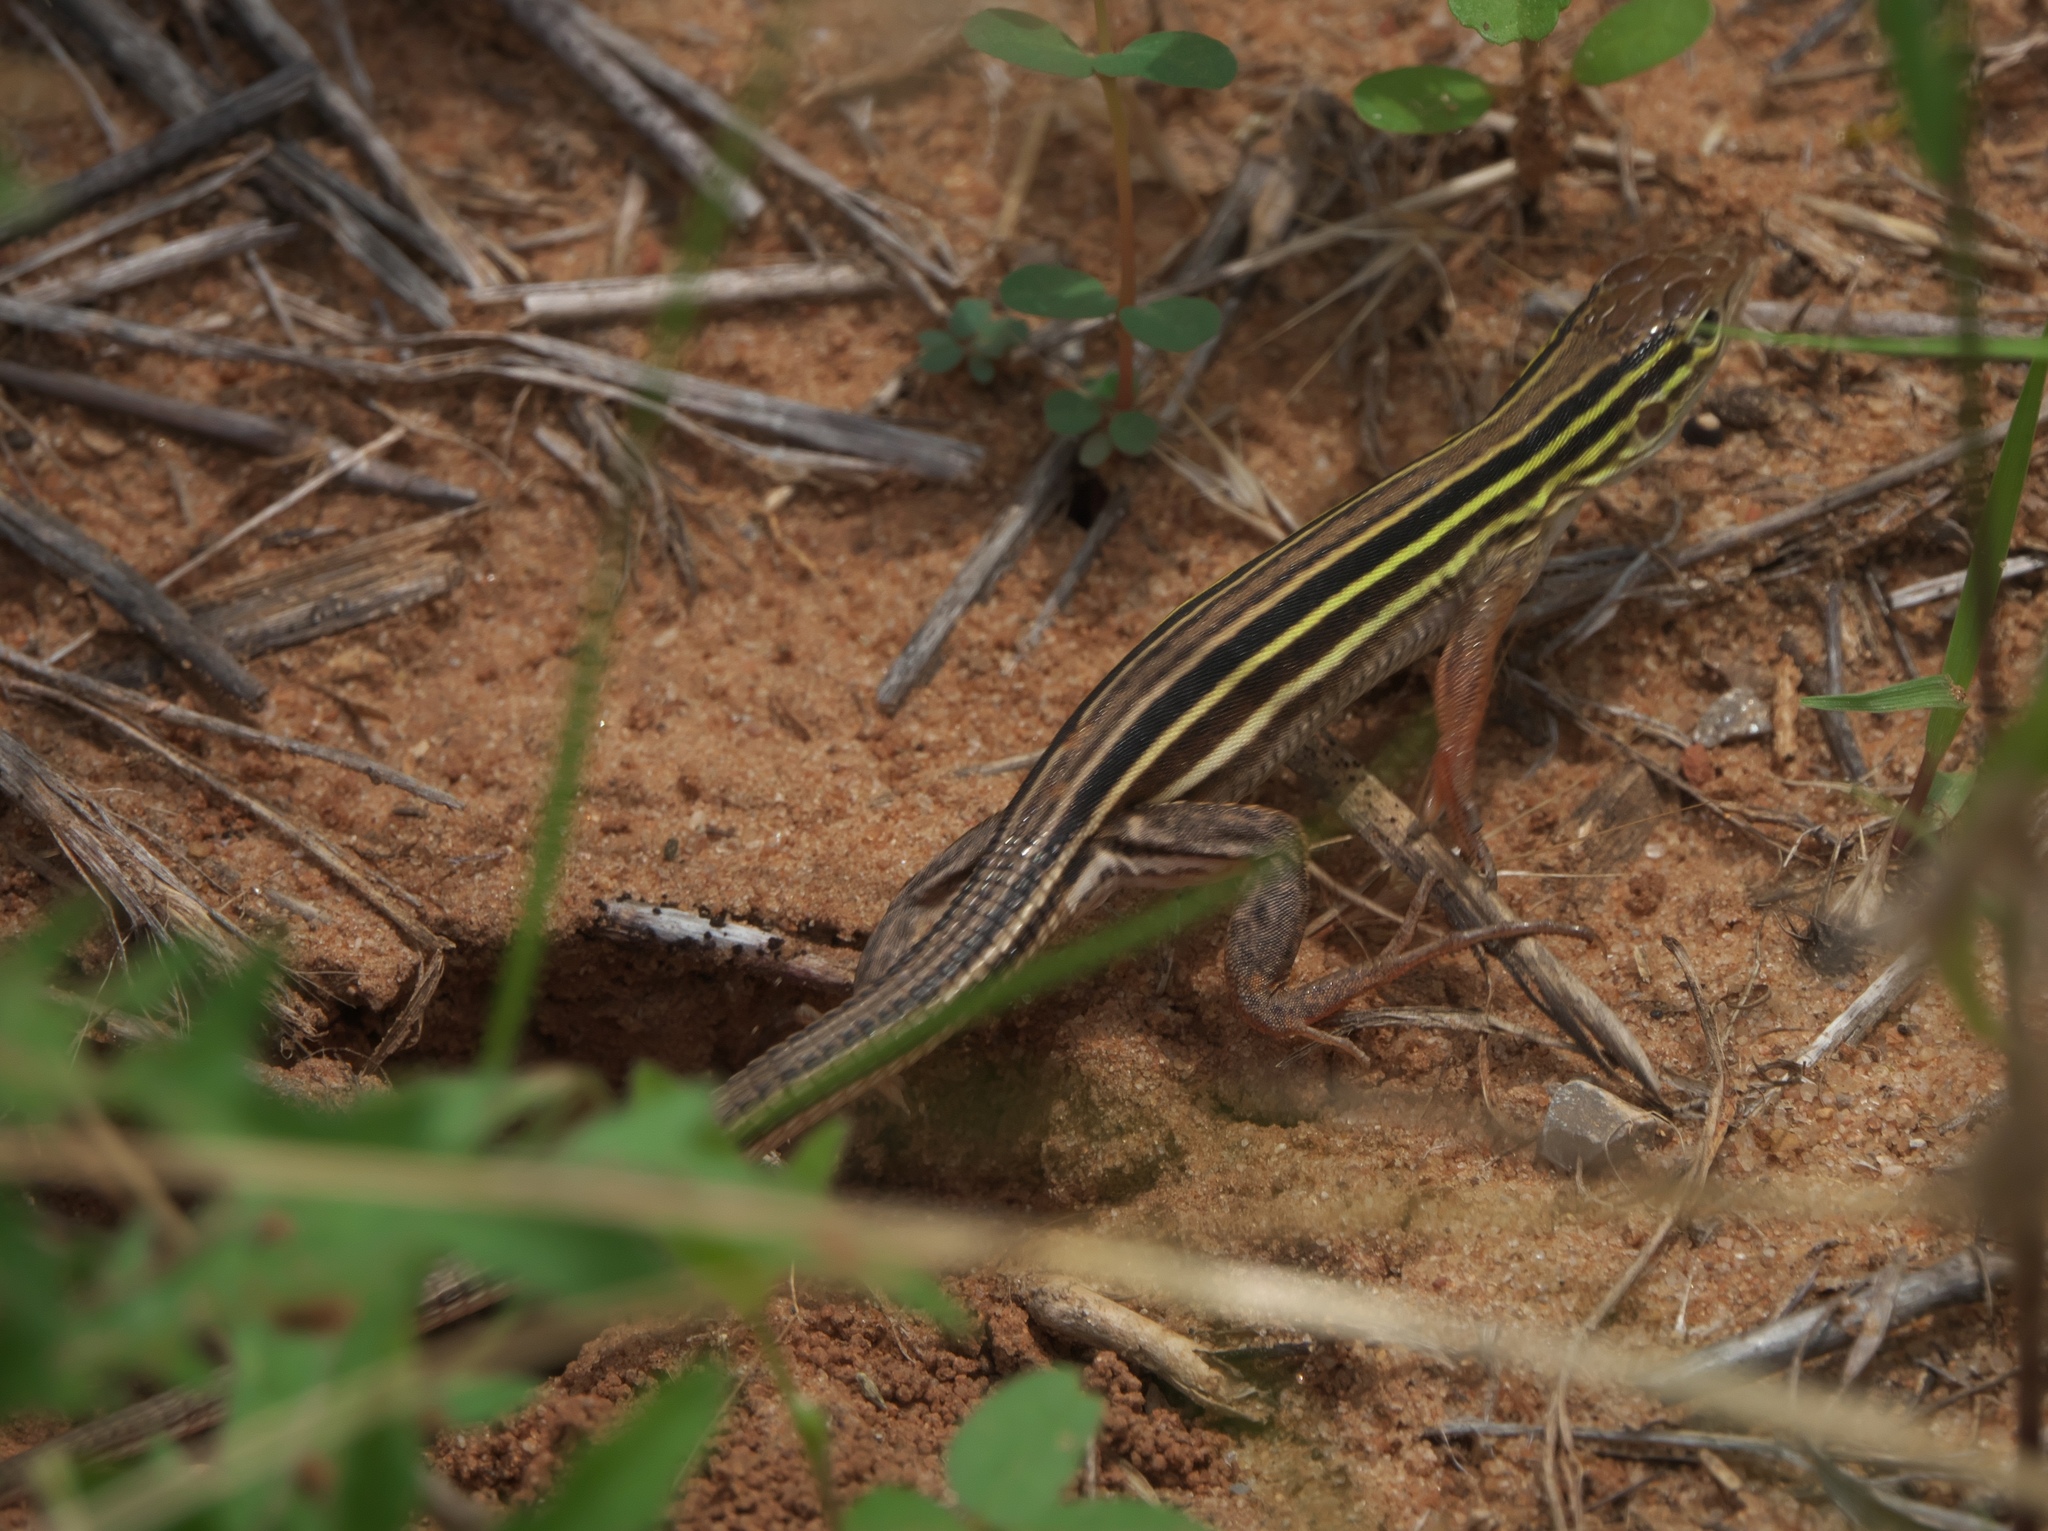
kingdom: Animalia
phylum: Chordata
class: Squamata
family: Teiidae
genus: Aspidoscelis
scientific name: Aspidoscelis sexlineatus
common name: Six-lined racerunner
